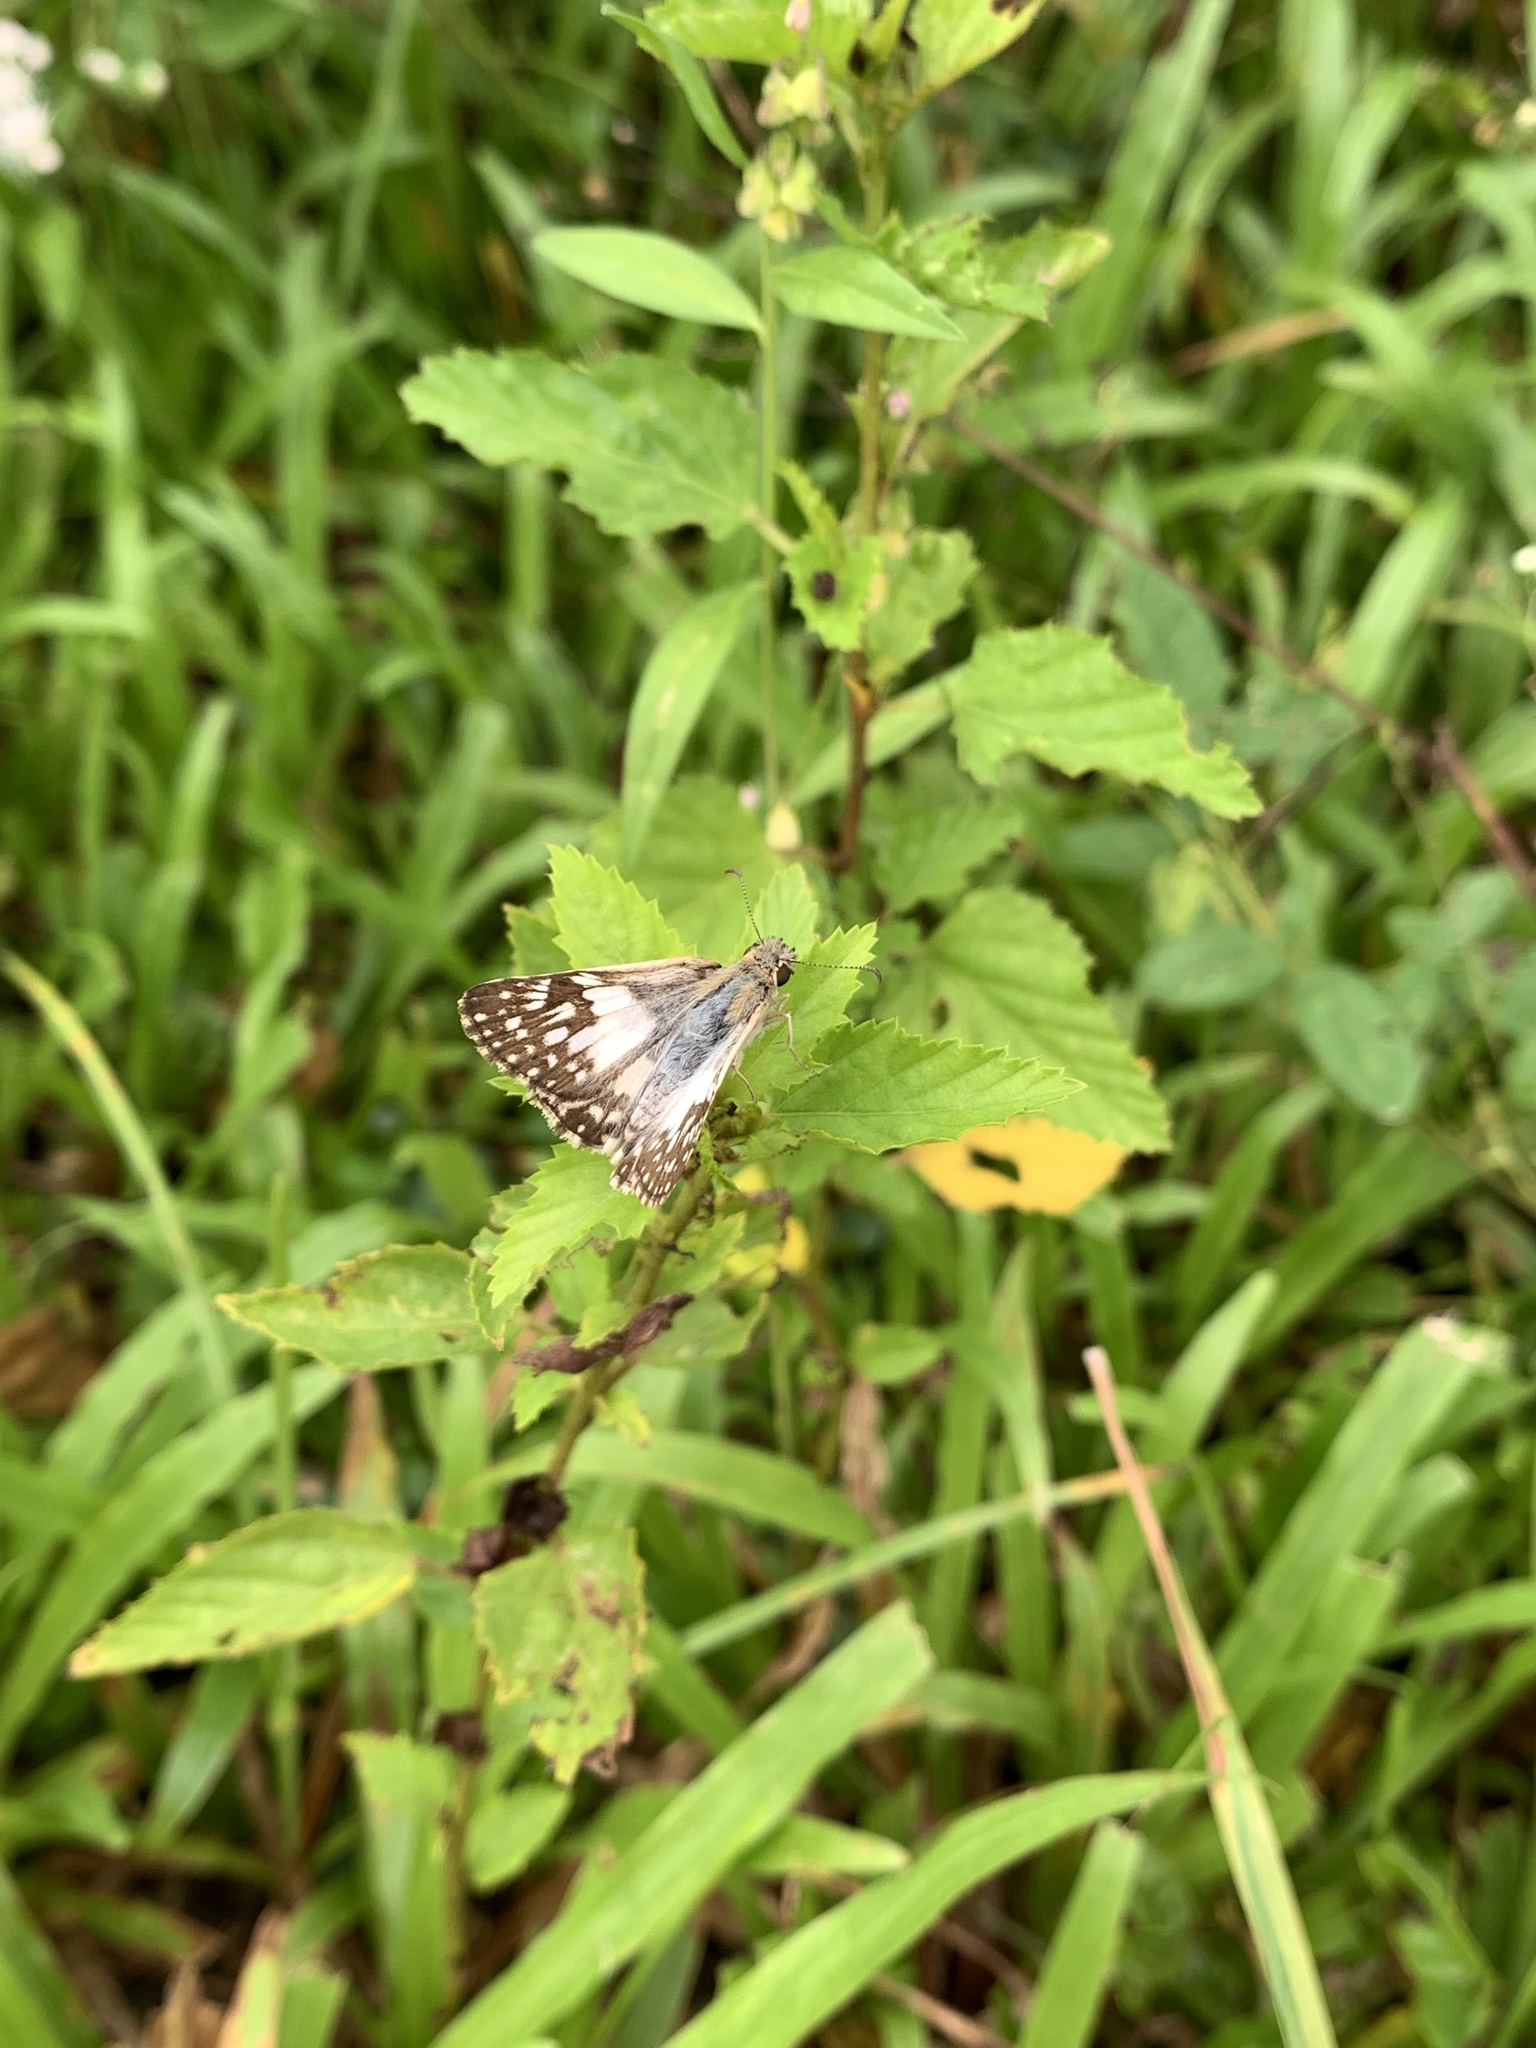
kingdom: Animalia
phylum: Arthropoda
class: Insecta
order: Lepidoptera
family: Hesperiidae
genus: Heliopyrgus
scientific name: Heliopyrgus domicella
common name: Erichson's white skipper
